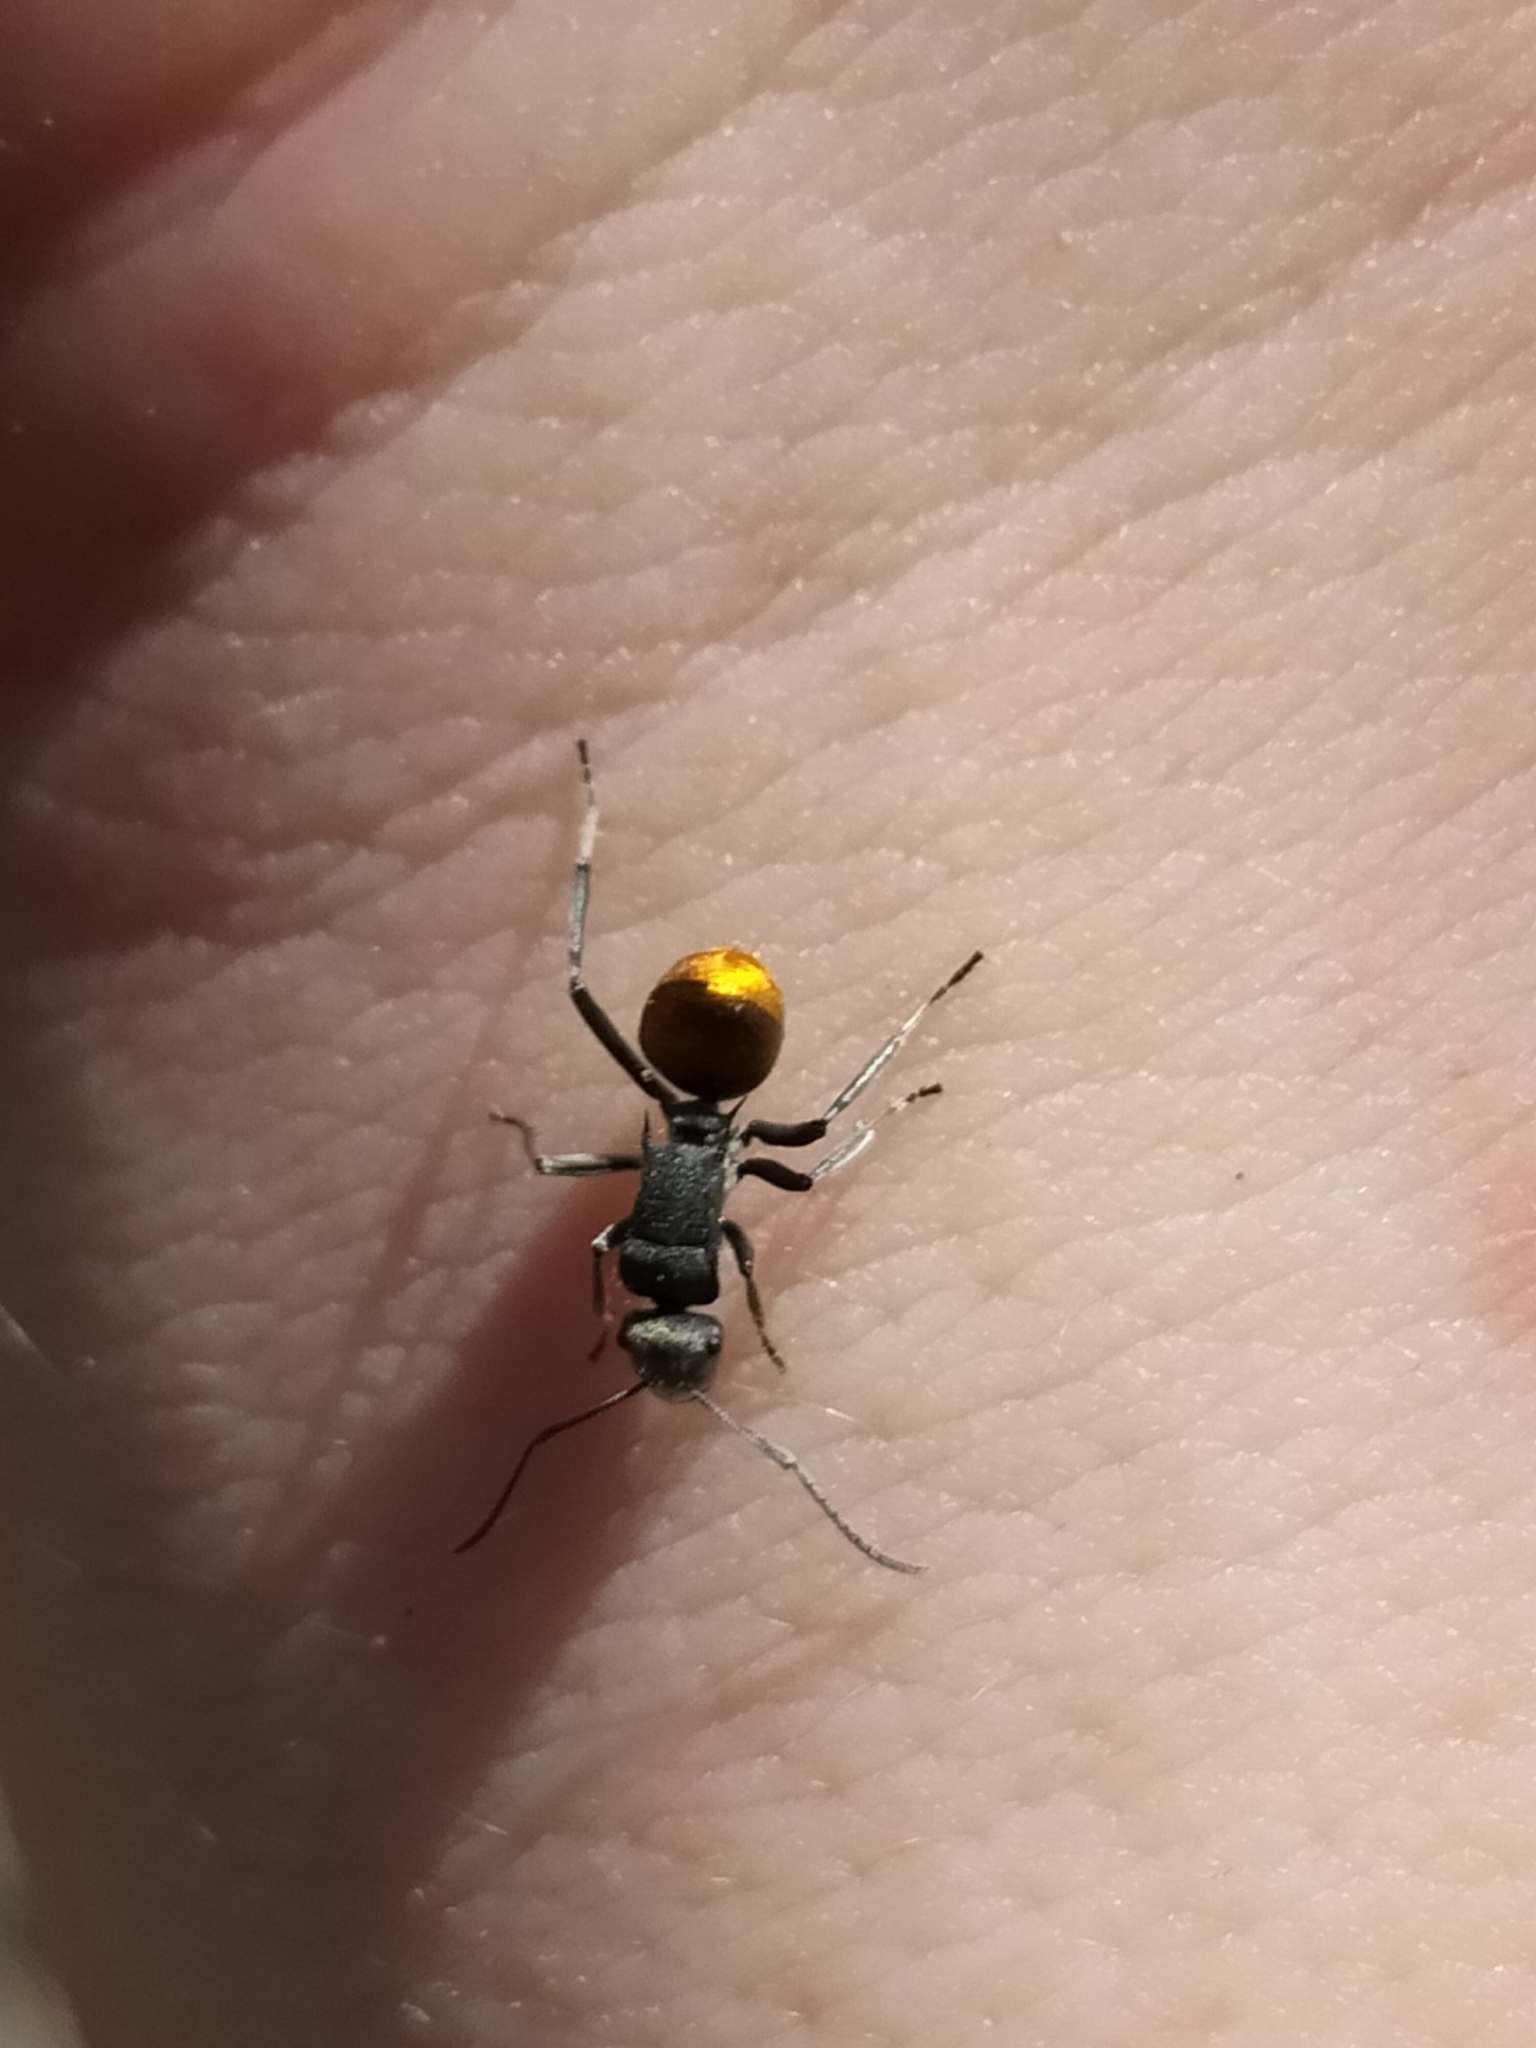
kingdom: Animalia
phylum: Arthropoda
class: Insecta
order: Hymenoptera
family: Formicidae
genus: Polyrhachis
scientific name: Polyrhachis thusnelda
